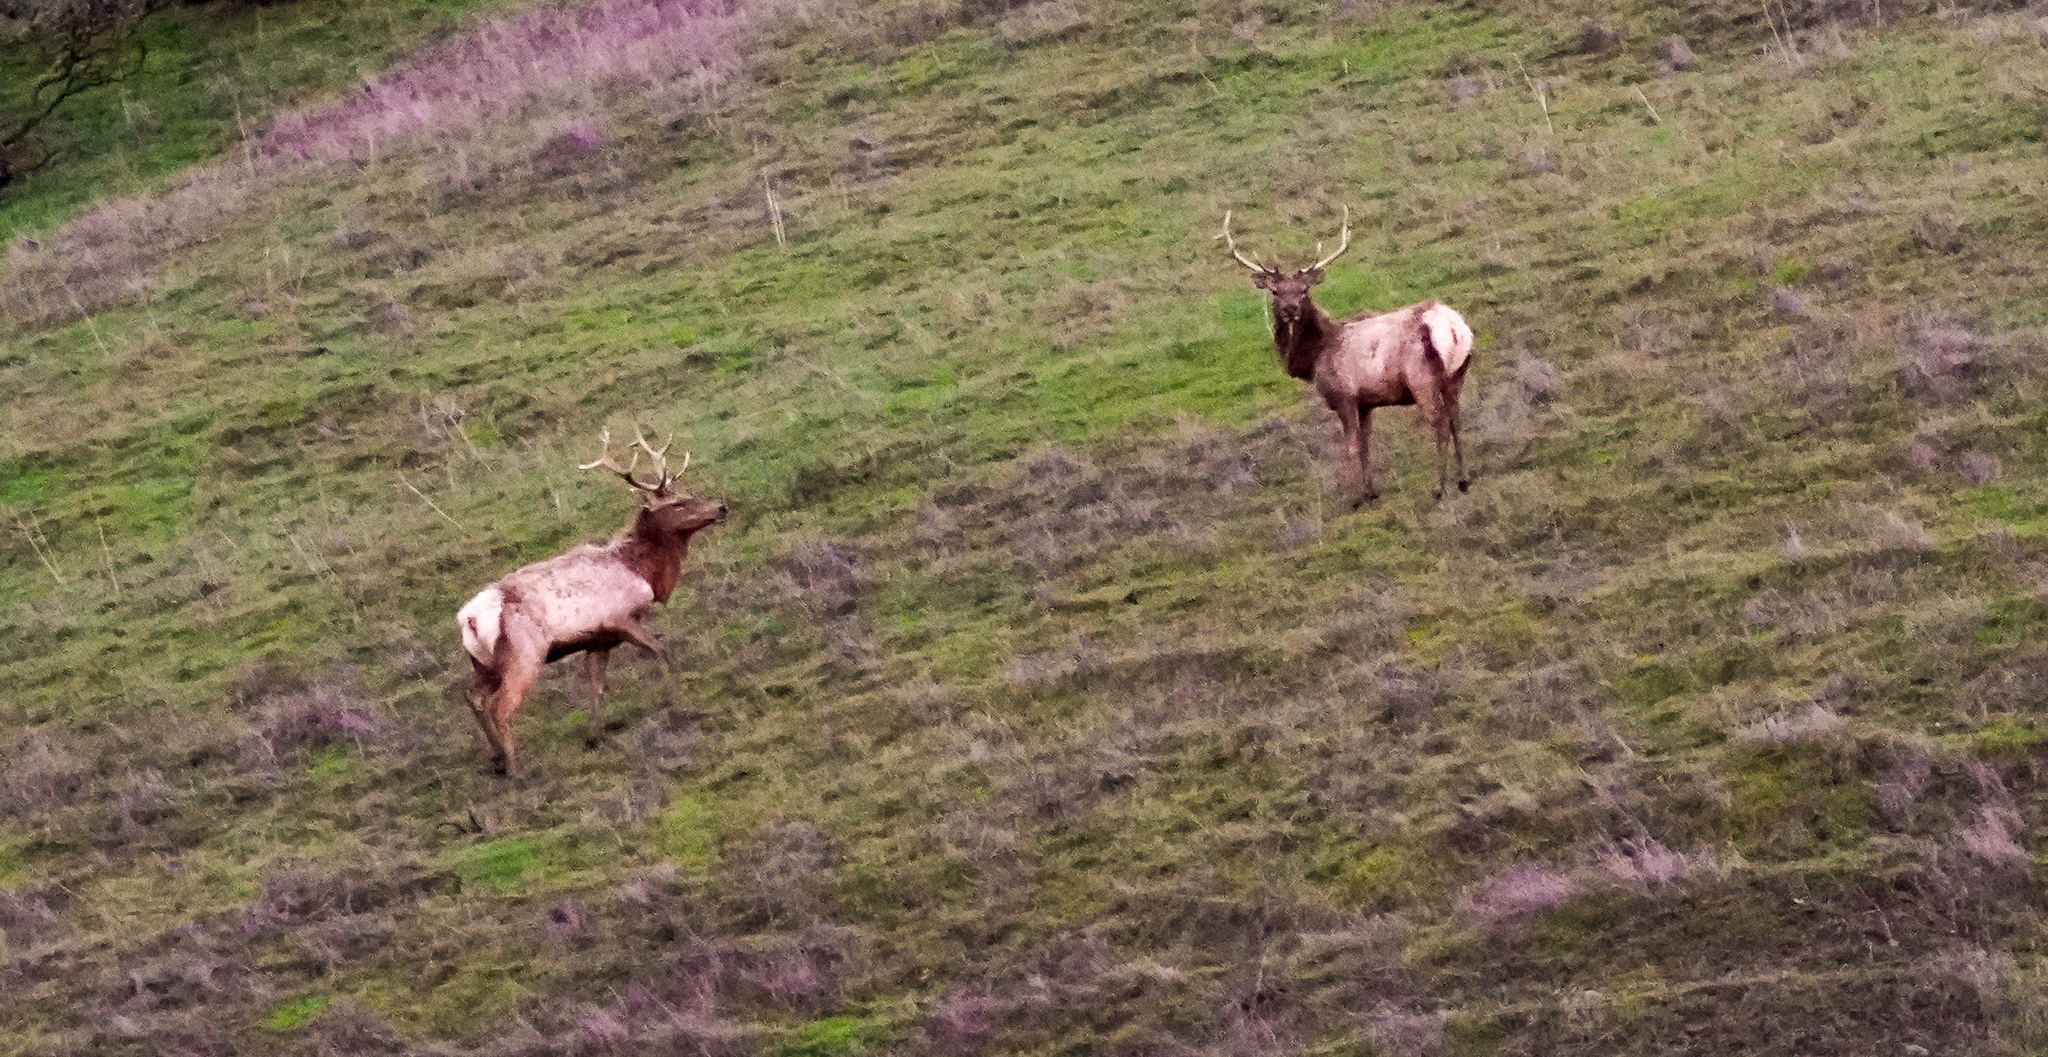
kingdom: Animalia
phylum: Chordata
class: Mammalia
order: Artiodactyla
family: Cervidae
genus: Cervus
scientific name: Cervus elaphus
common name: Red deer
